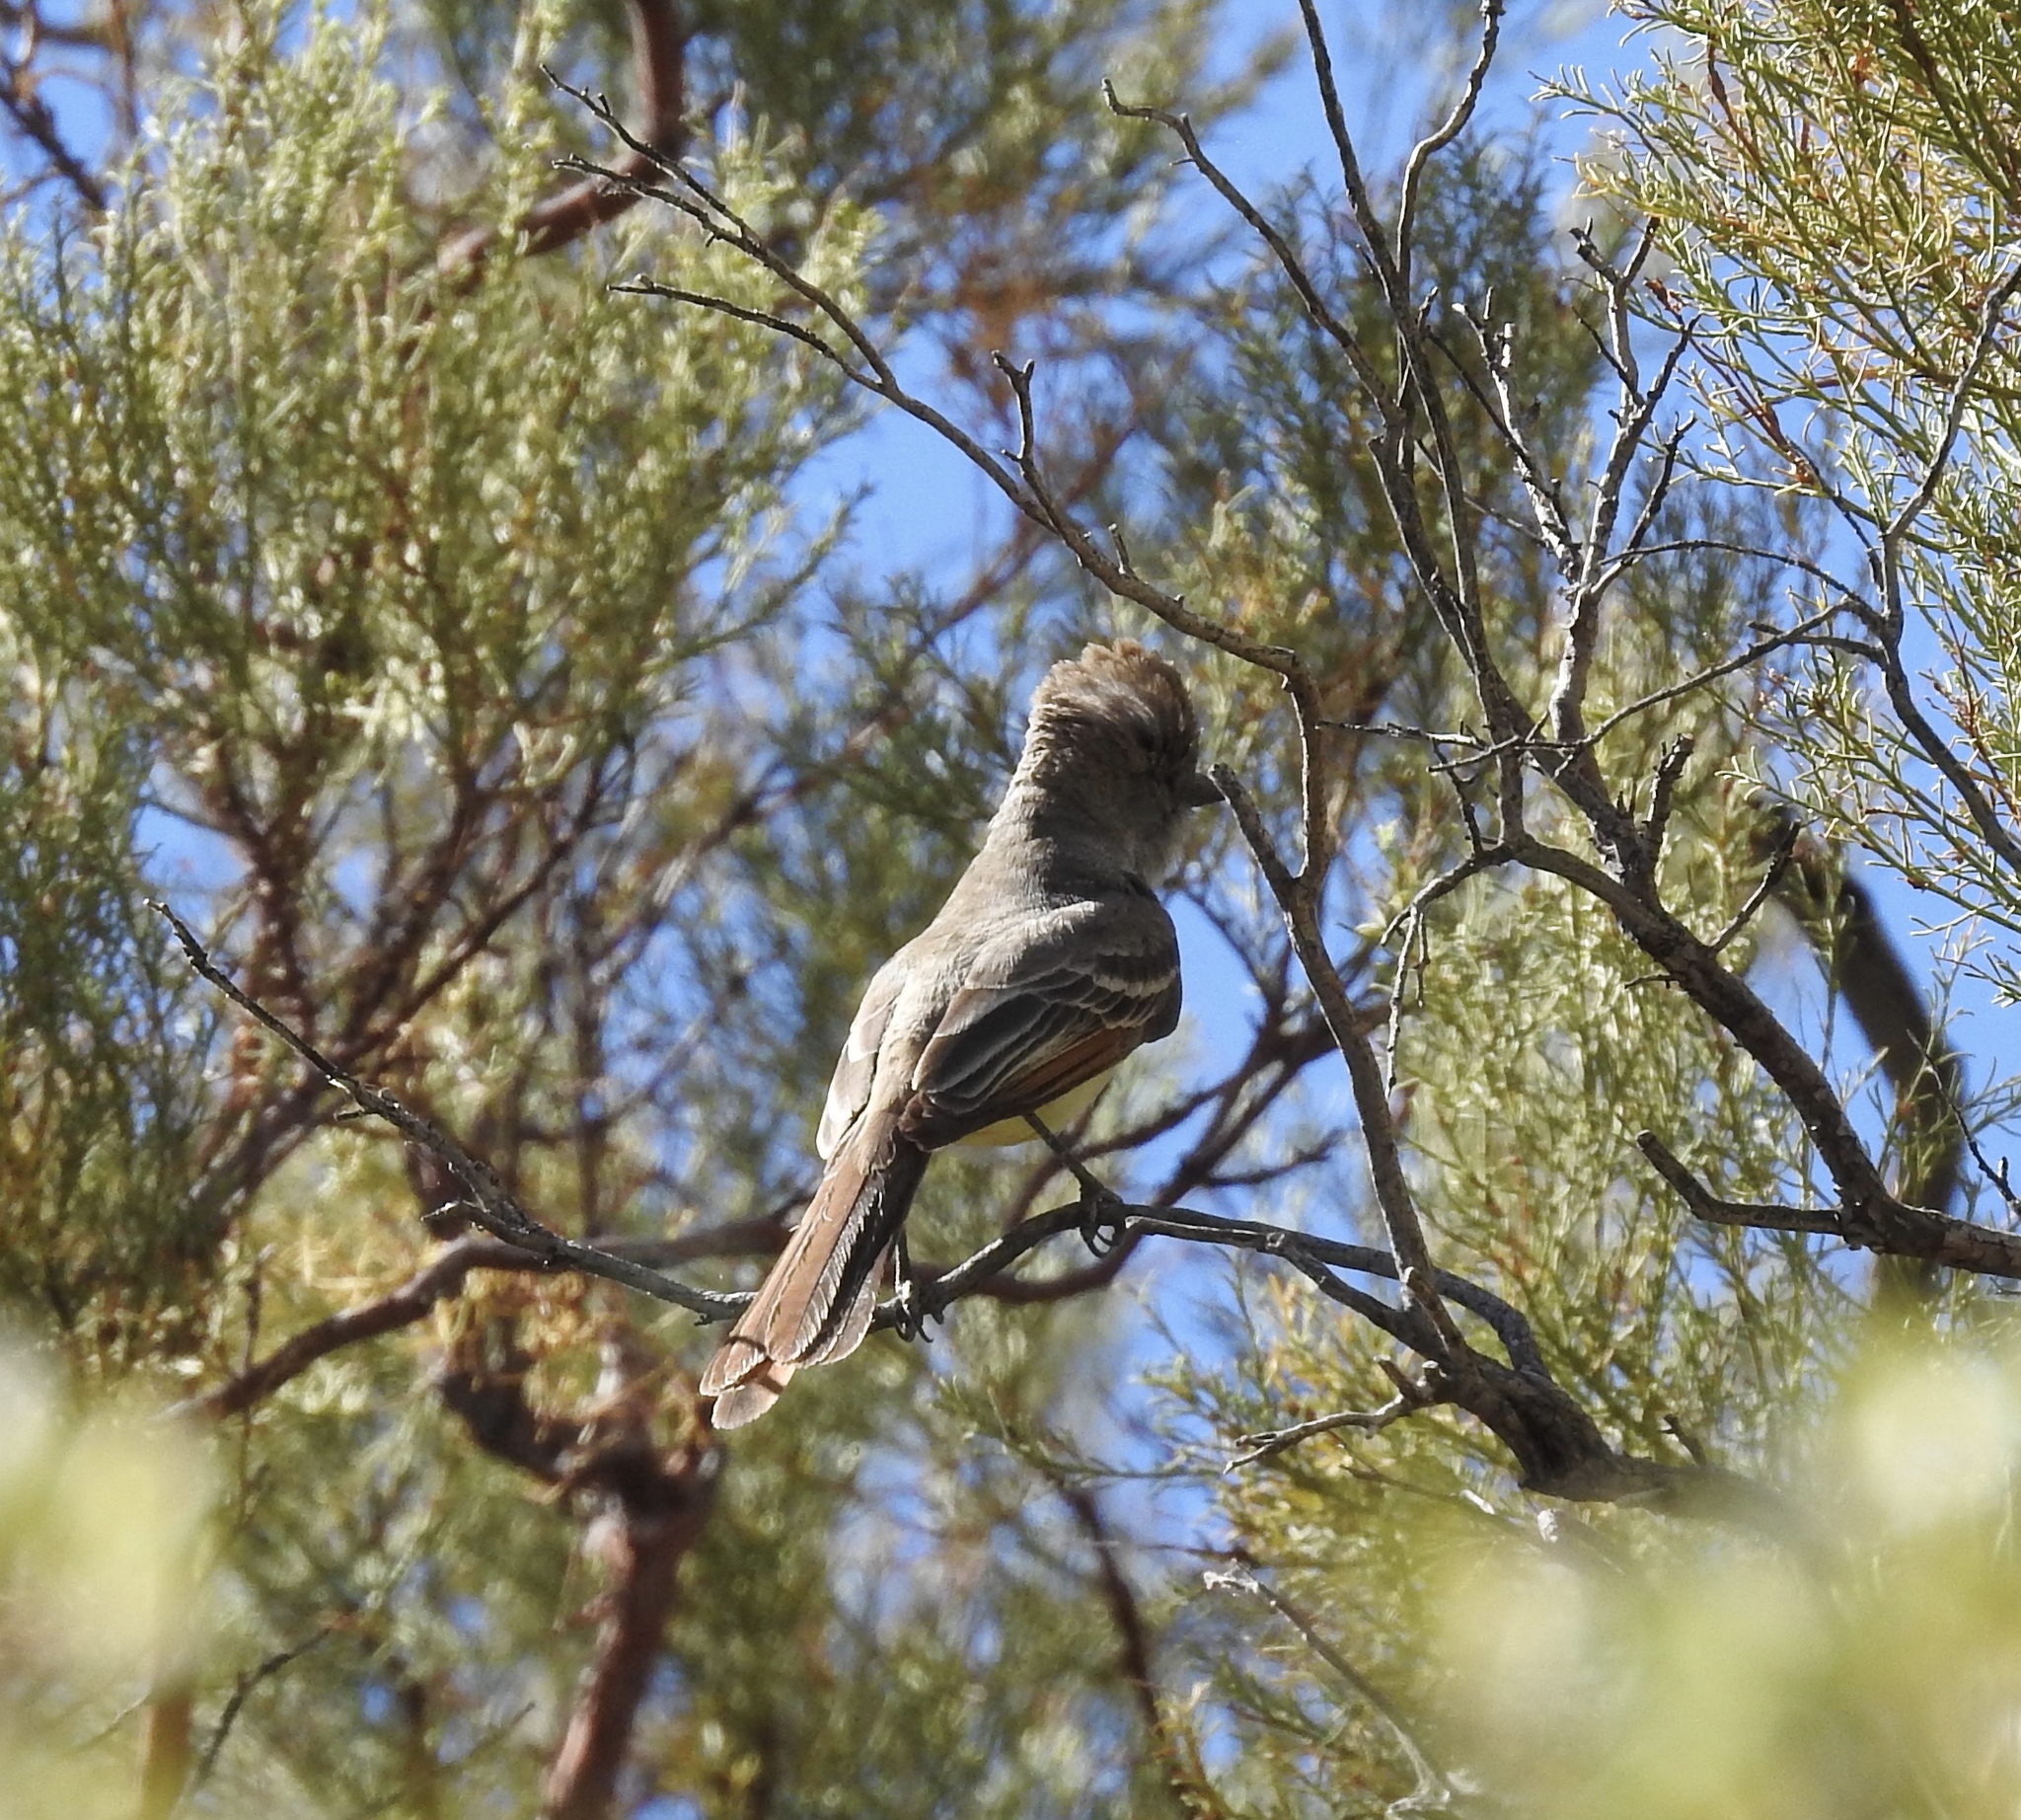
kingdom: Animalia
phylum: Chordata
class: Aves
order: Passeriformes
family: Tyrannidae
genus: Myiarchus
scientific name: Myiarchus cinerascens
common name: Ash-throated flycatcher
